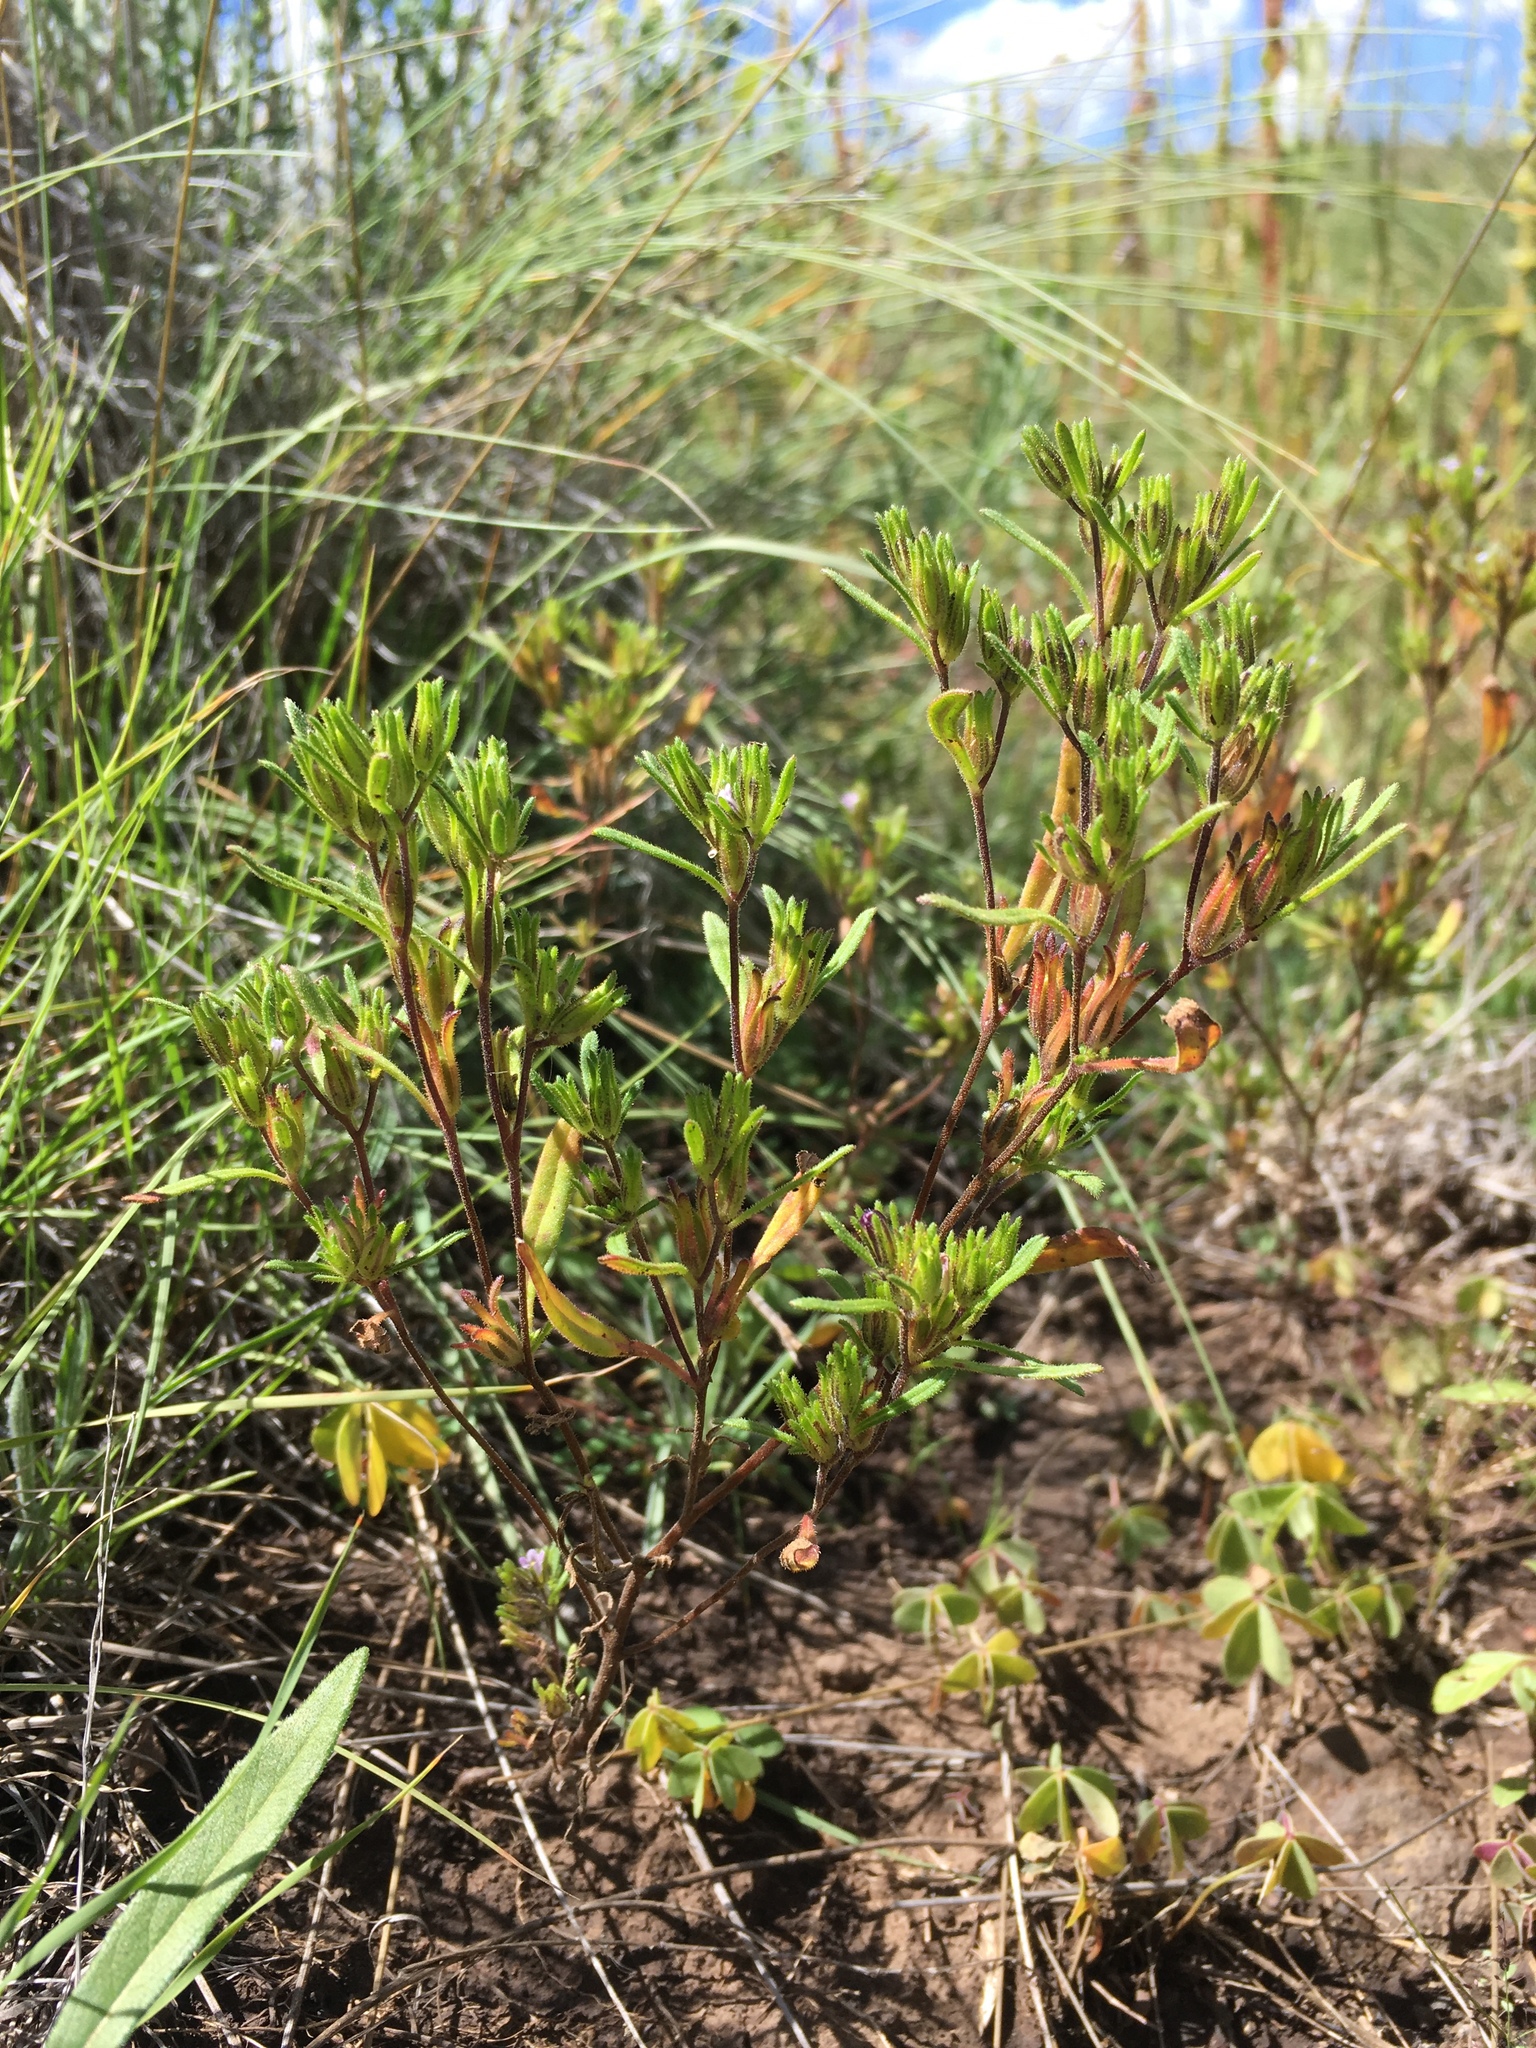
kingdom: Plantae
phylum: Tracheophyta
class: Magnoliopsida
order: Boraginales
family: Namaceae
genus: Nama
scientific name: Nama dichotoma
